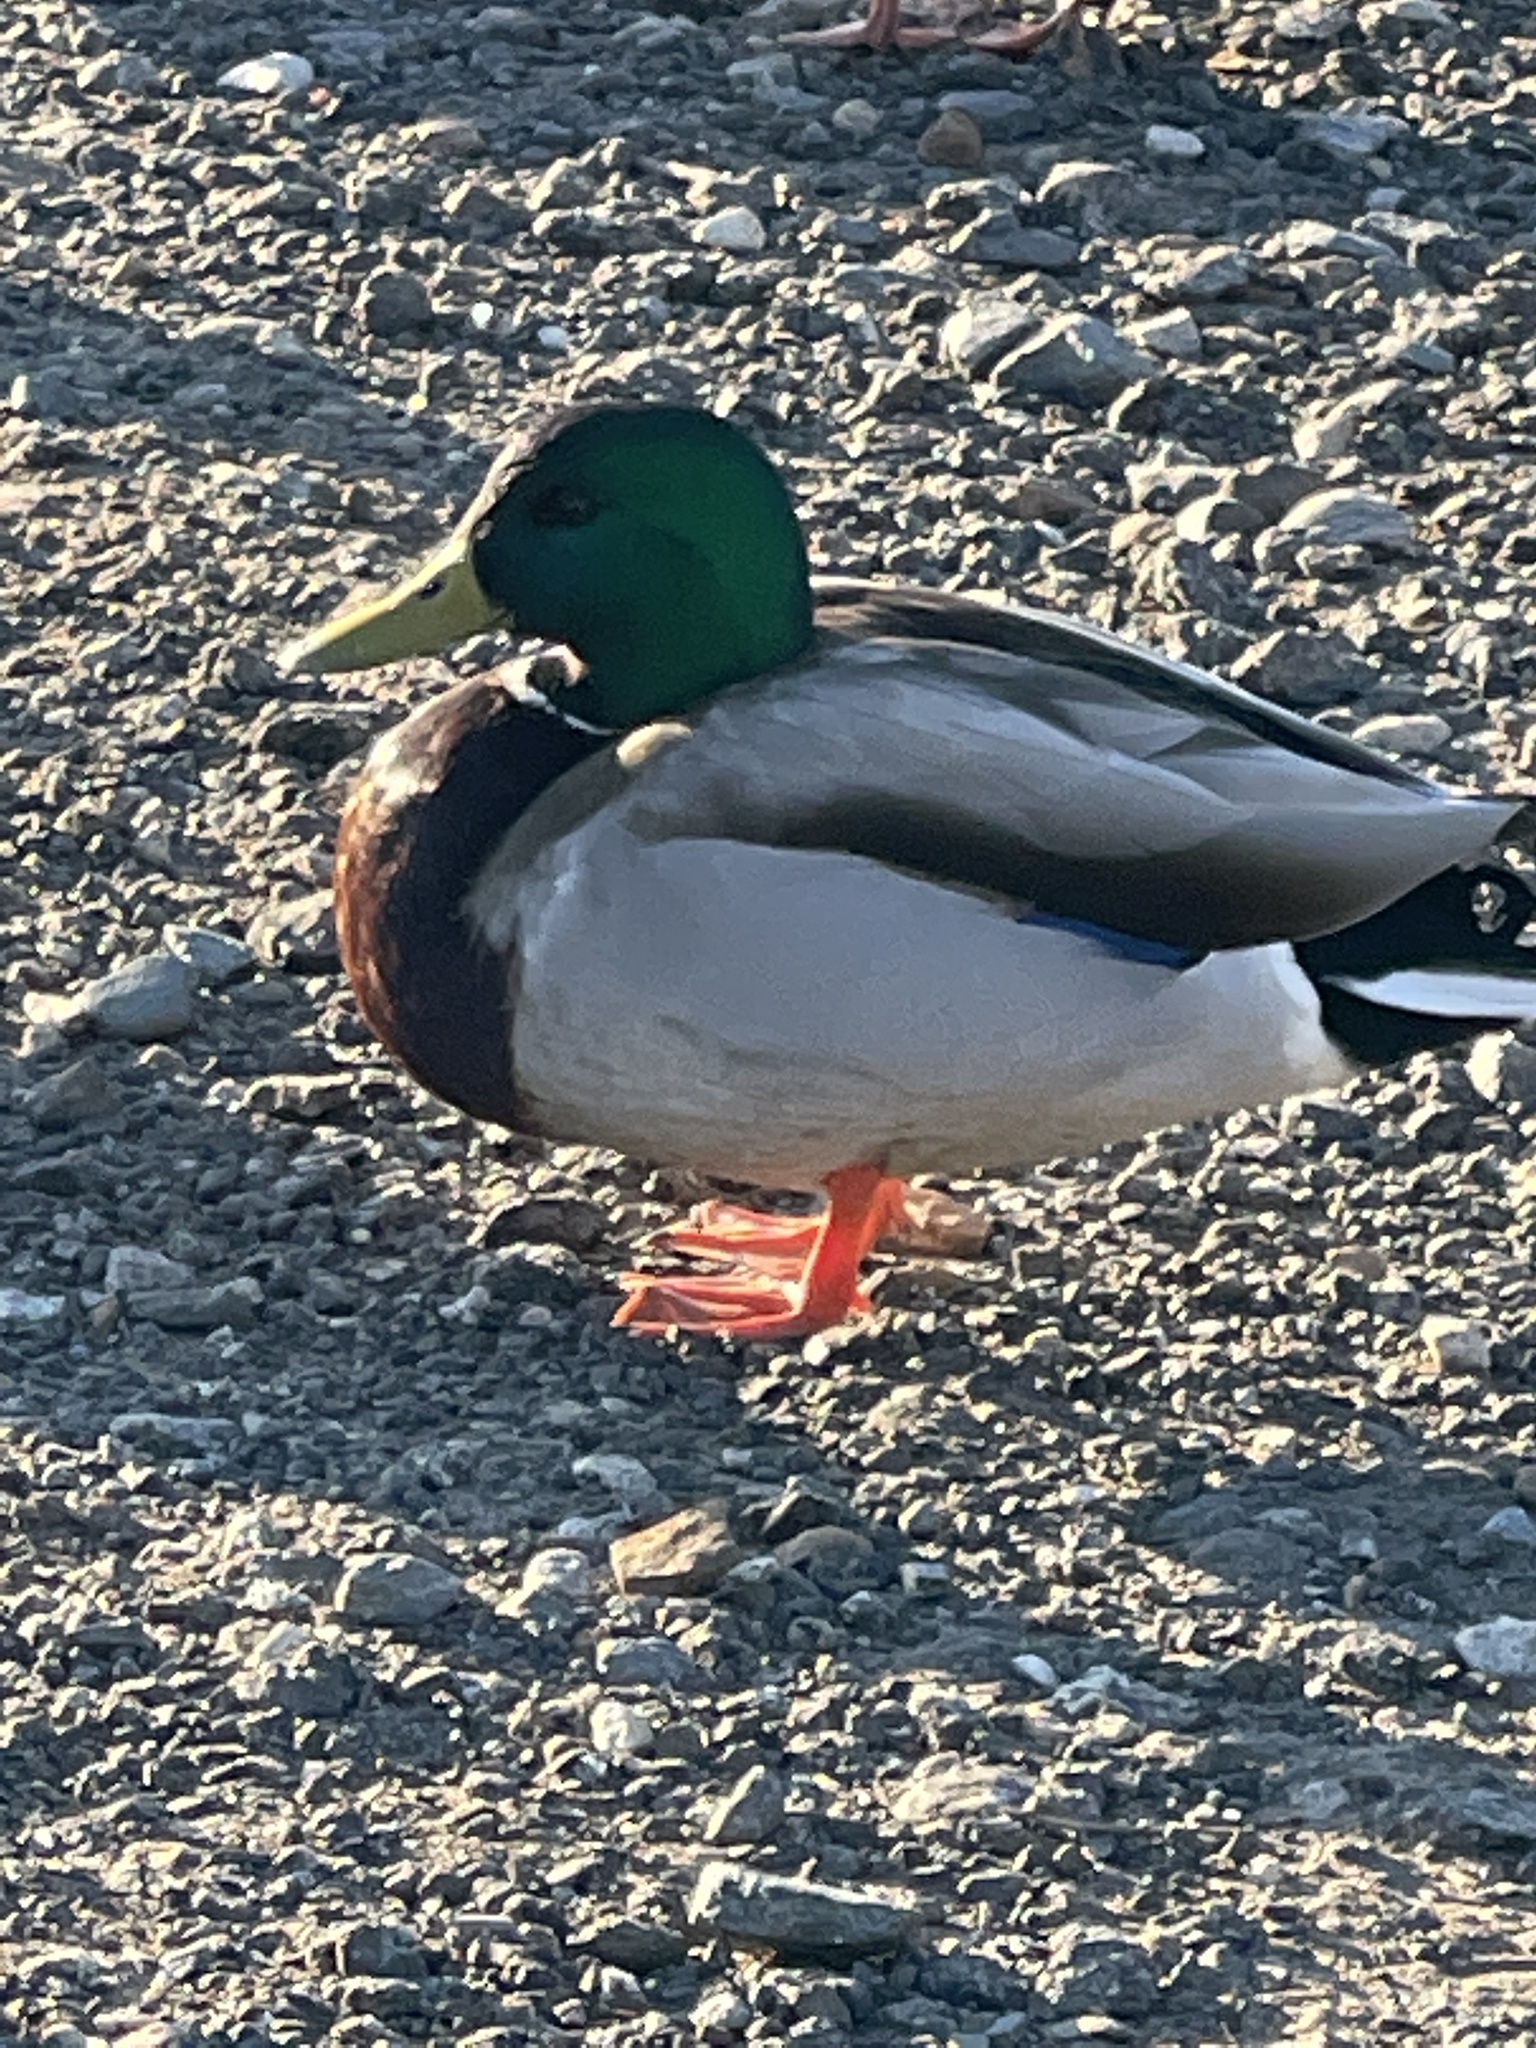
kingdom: Animalia
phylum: Chordata
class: Aves
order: Anseriformes
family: Anatidae
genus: Anas
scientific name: Anas platyrhynchos
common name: Mallard
